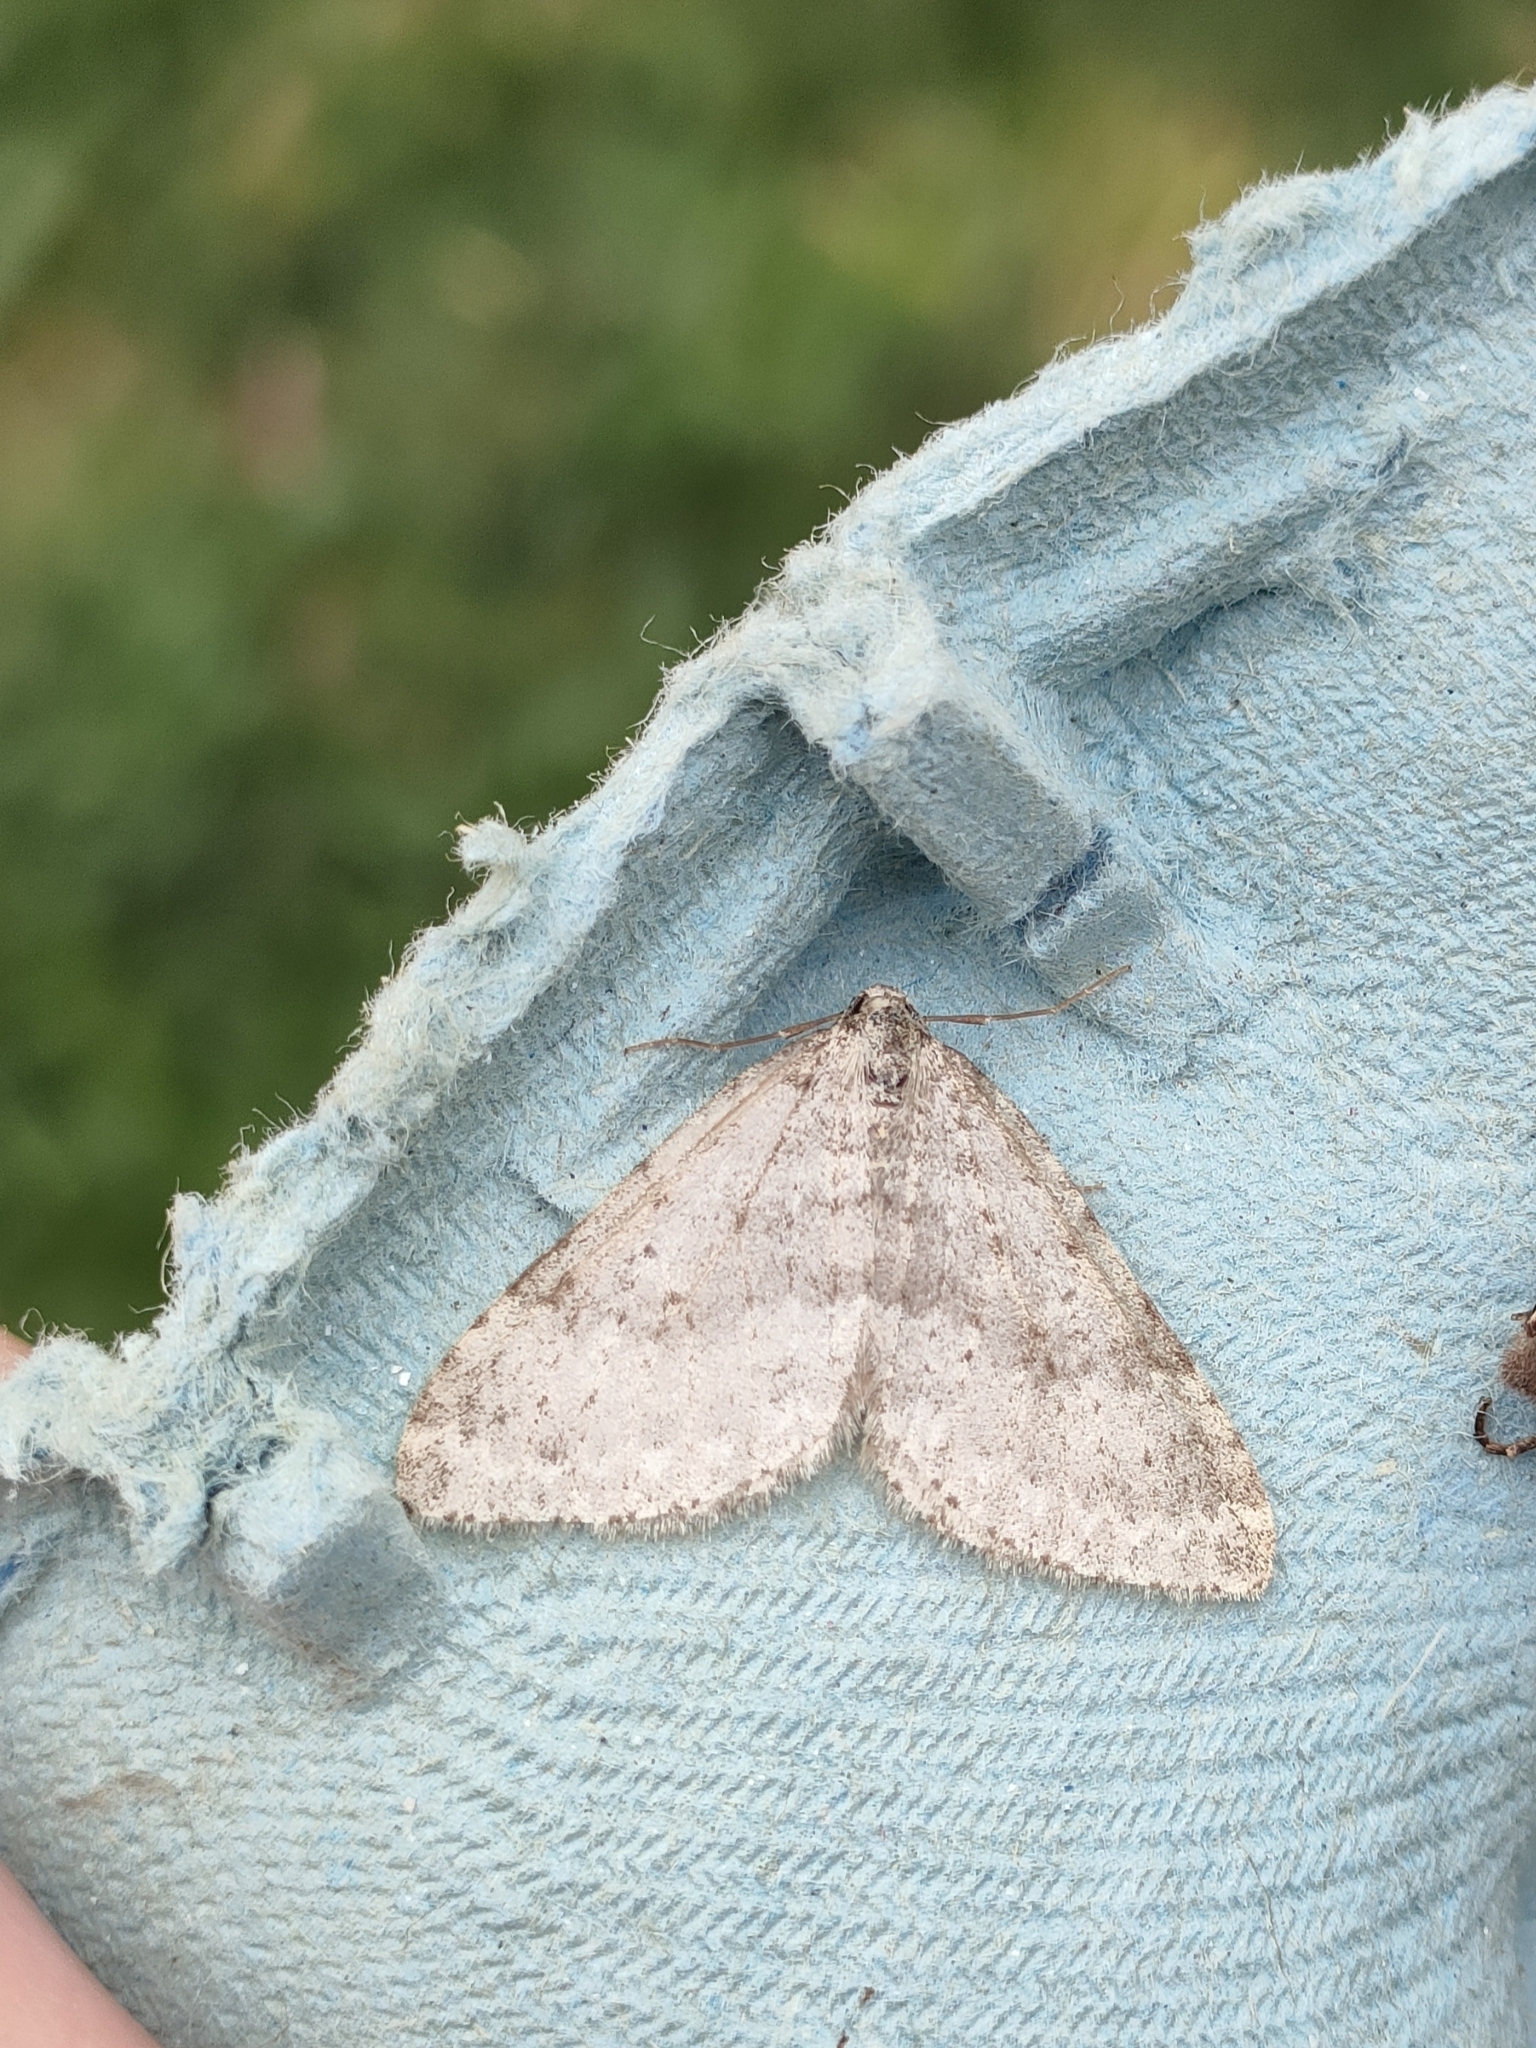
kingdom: Animalia
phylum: Arthropoda
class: Insecta
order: Lepidoptera
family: Geometridae
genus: Colostygia
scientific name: Colostygia multistrigaria
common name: Mottled grey
